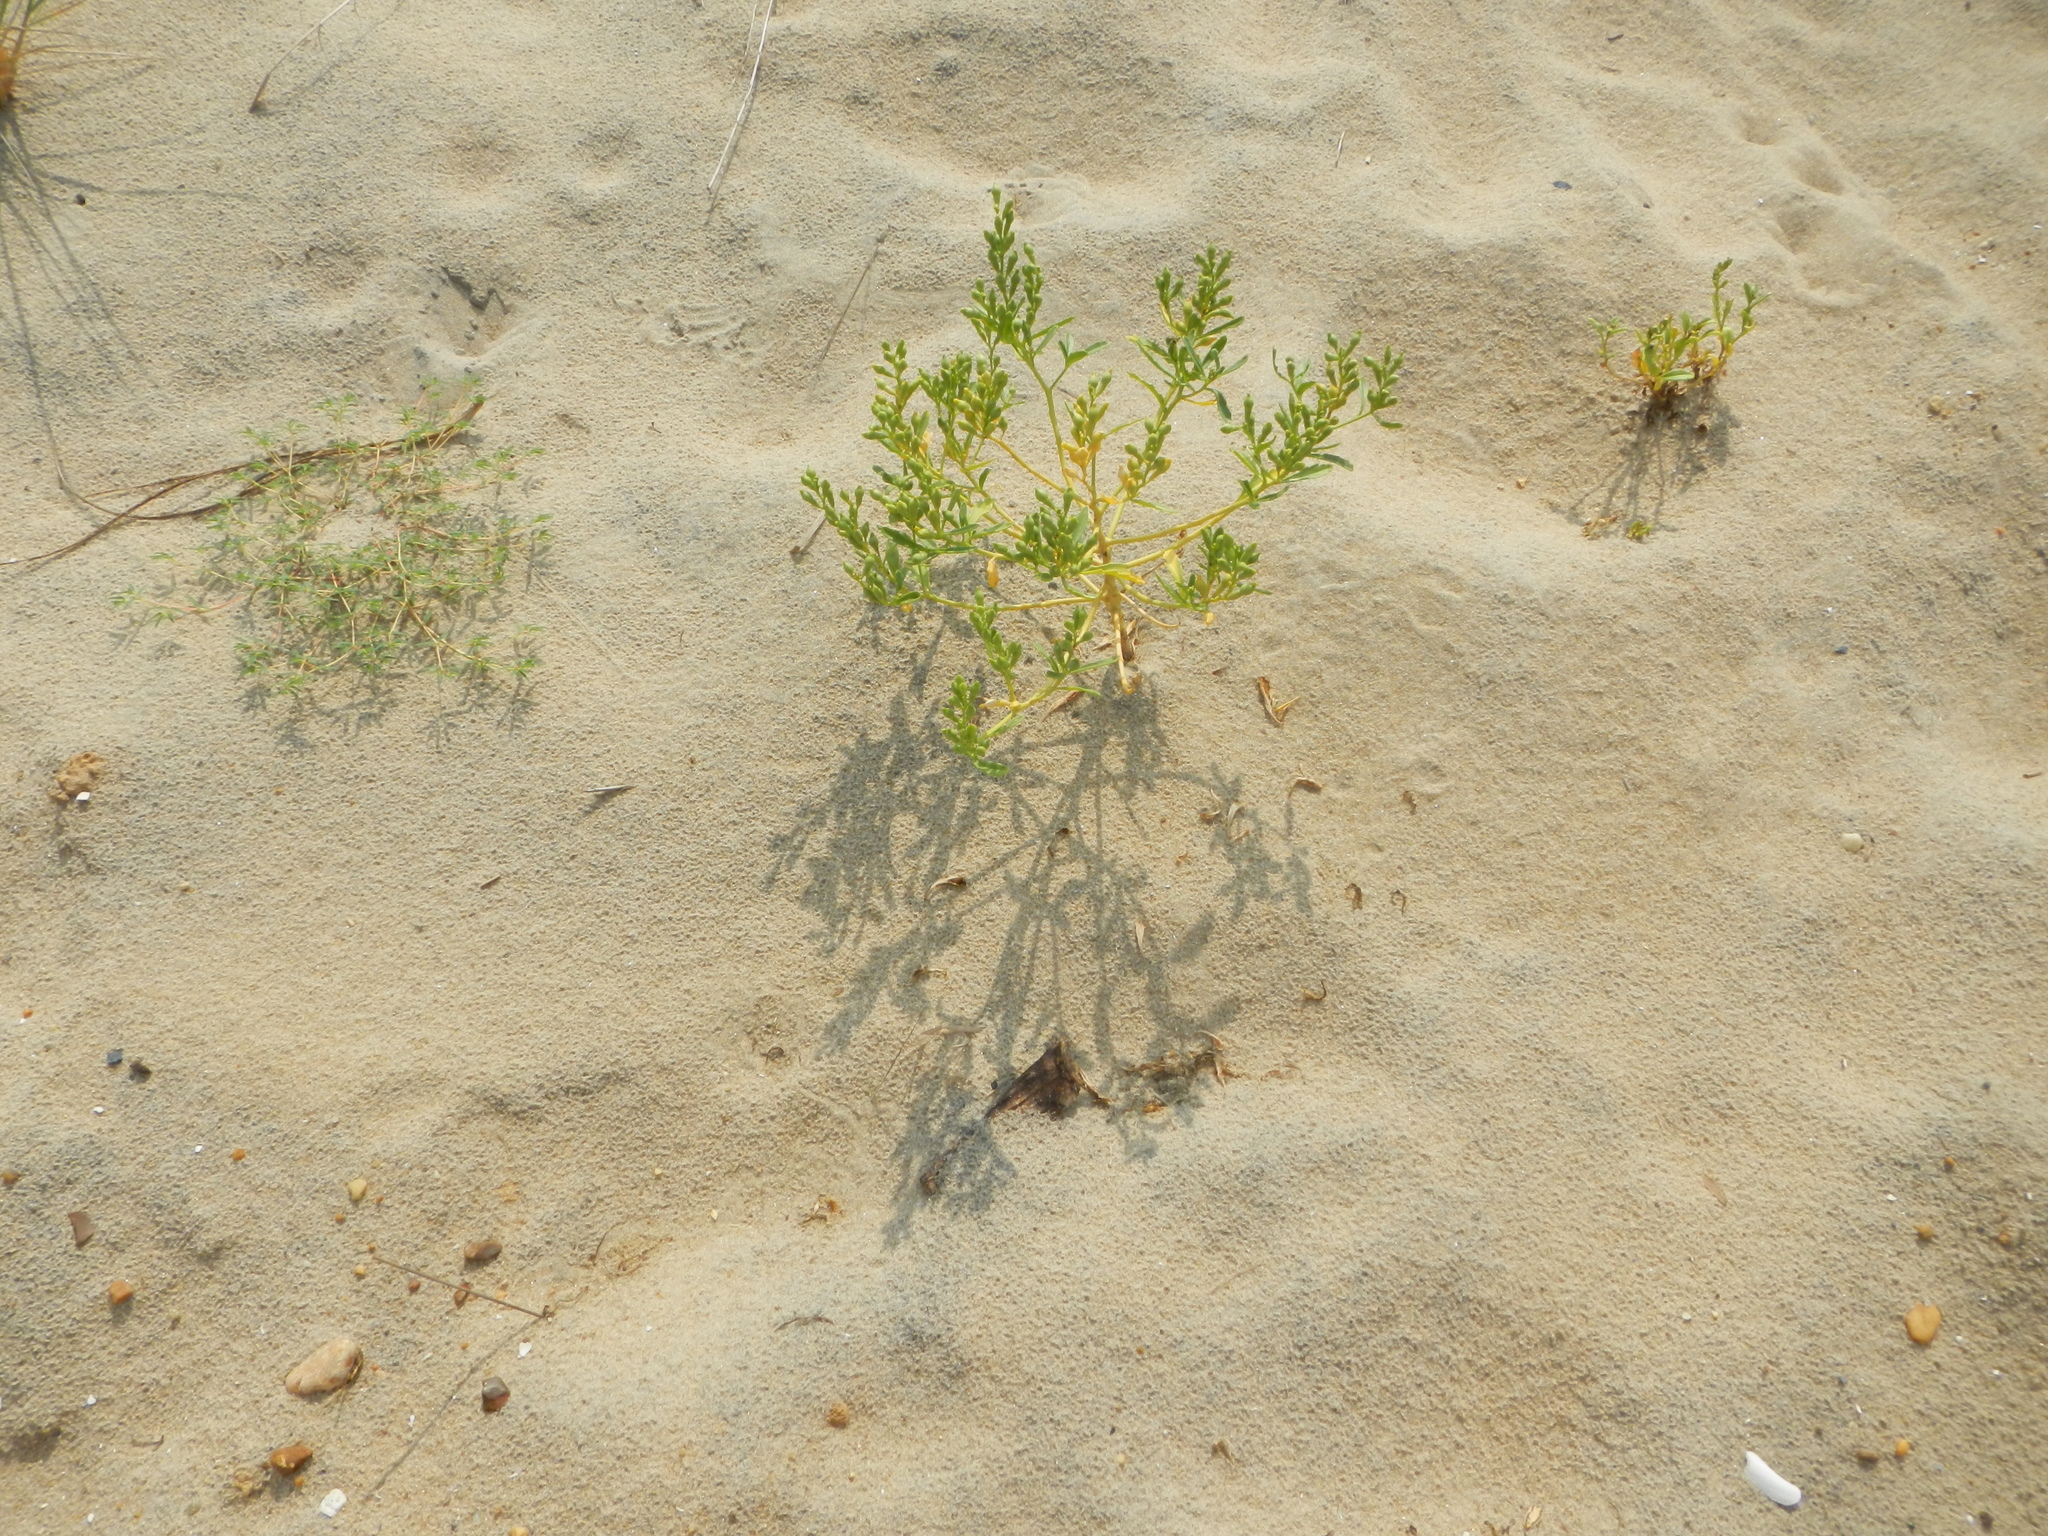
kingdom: Plantae
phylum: Tracheophyta
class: Magnoliopsida
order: Brassicales
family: Brassicaceae
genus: Cakile
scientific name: Cakile edentula
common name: American sea rocket
